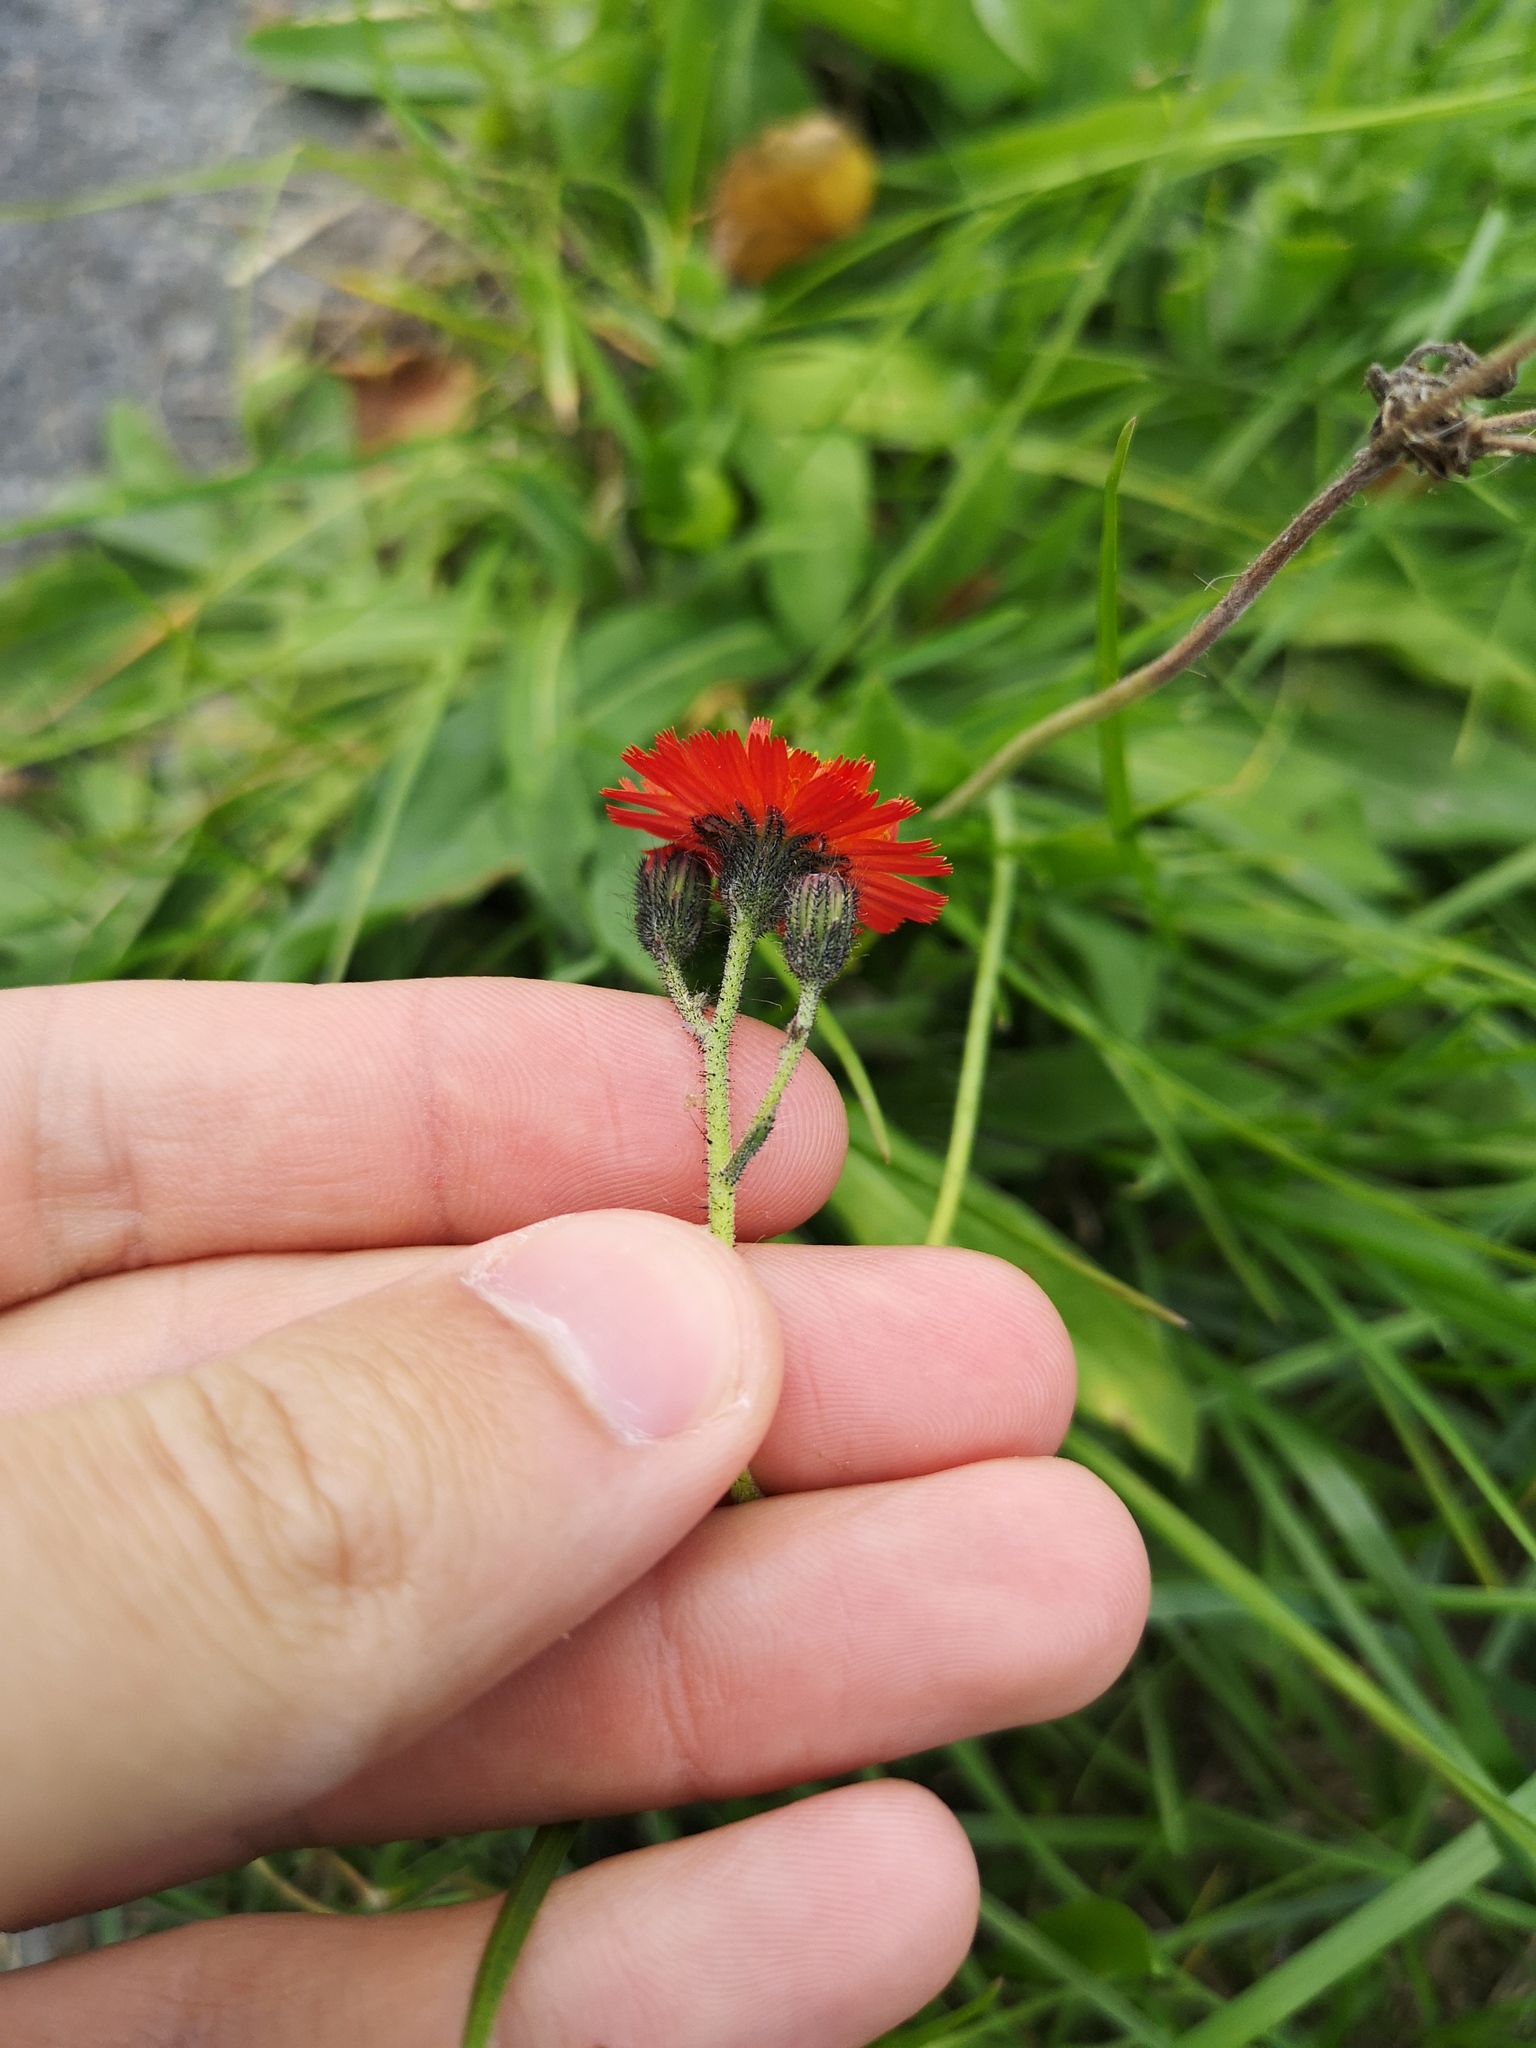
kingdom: Plantae
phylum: Tracheophyta
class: Magnoliopsida
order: Asterales
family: Asteraceae
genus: Pilosella
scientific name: Pilosella aurantiaca
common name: Fox-and-cubs
